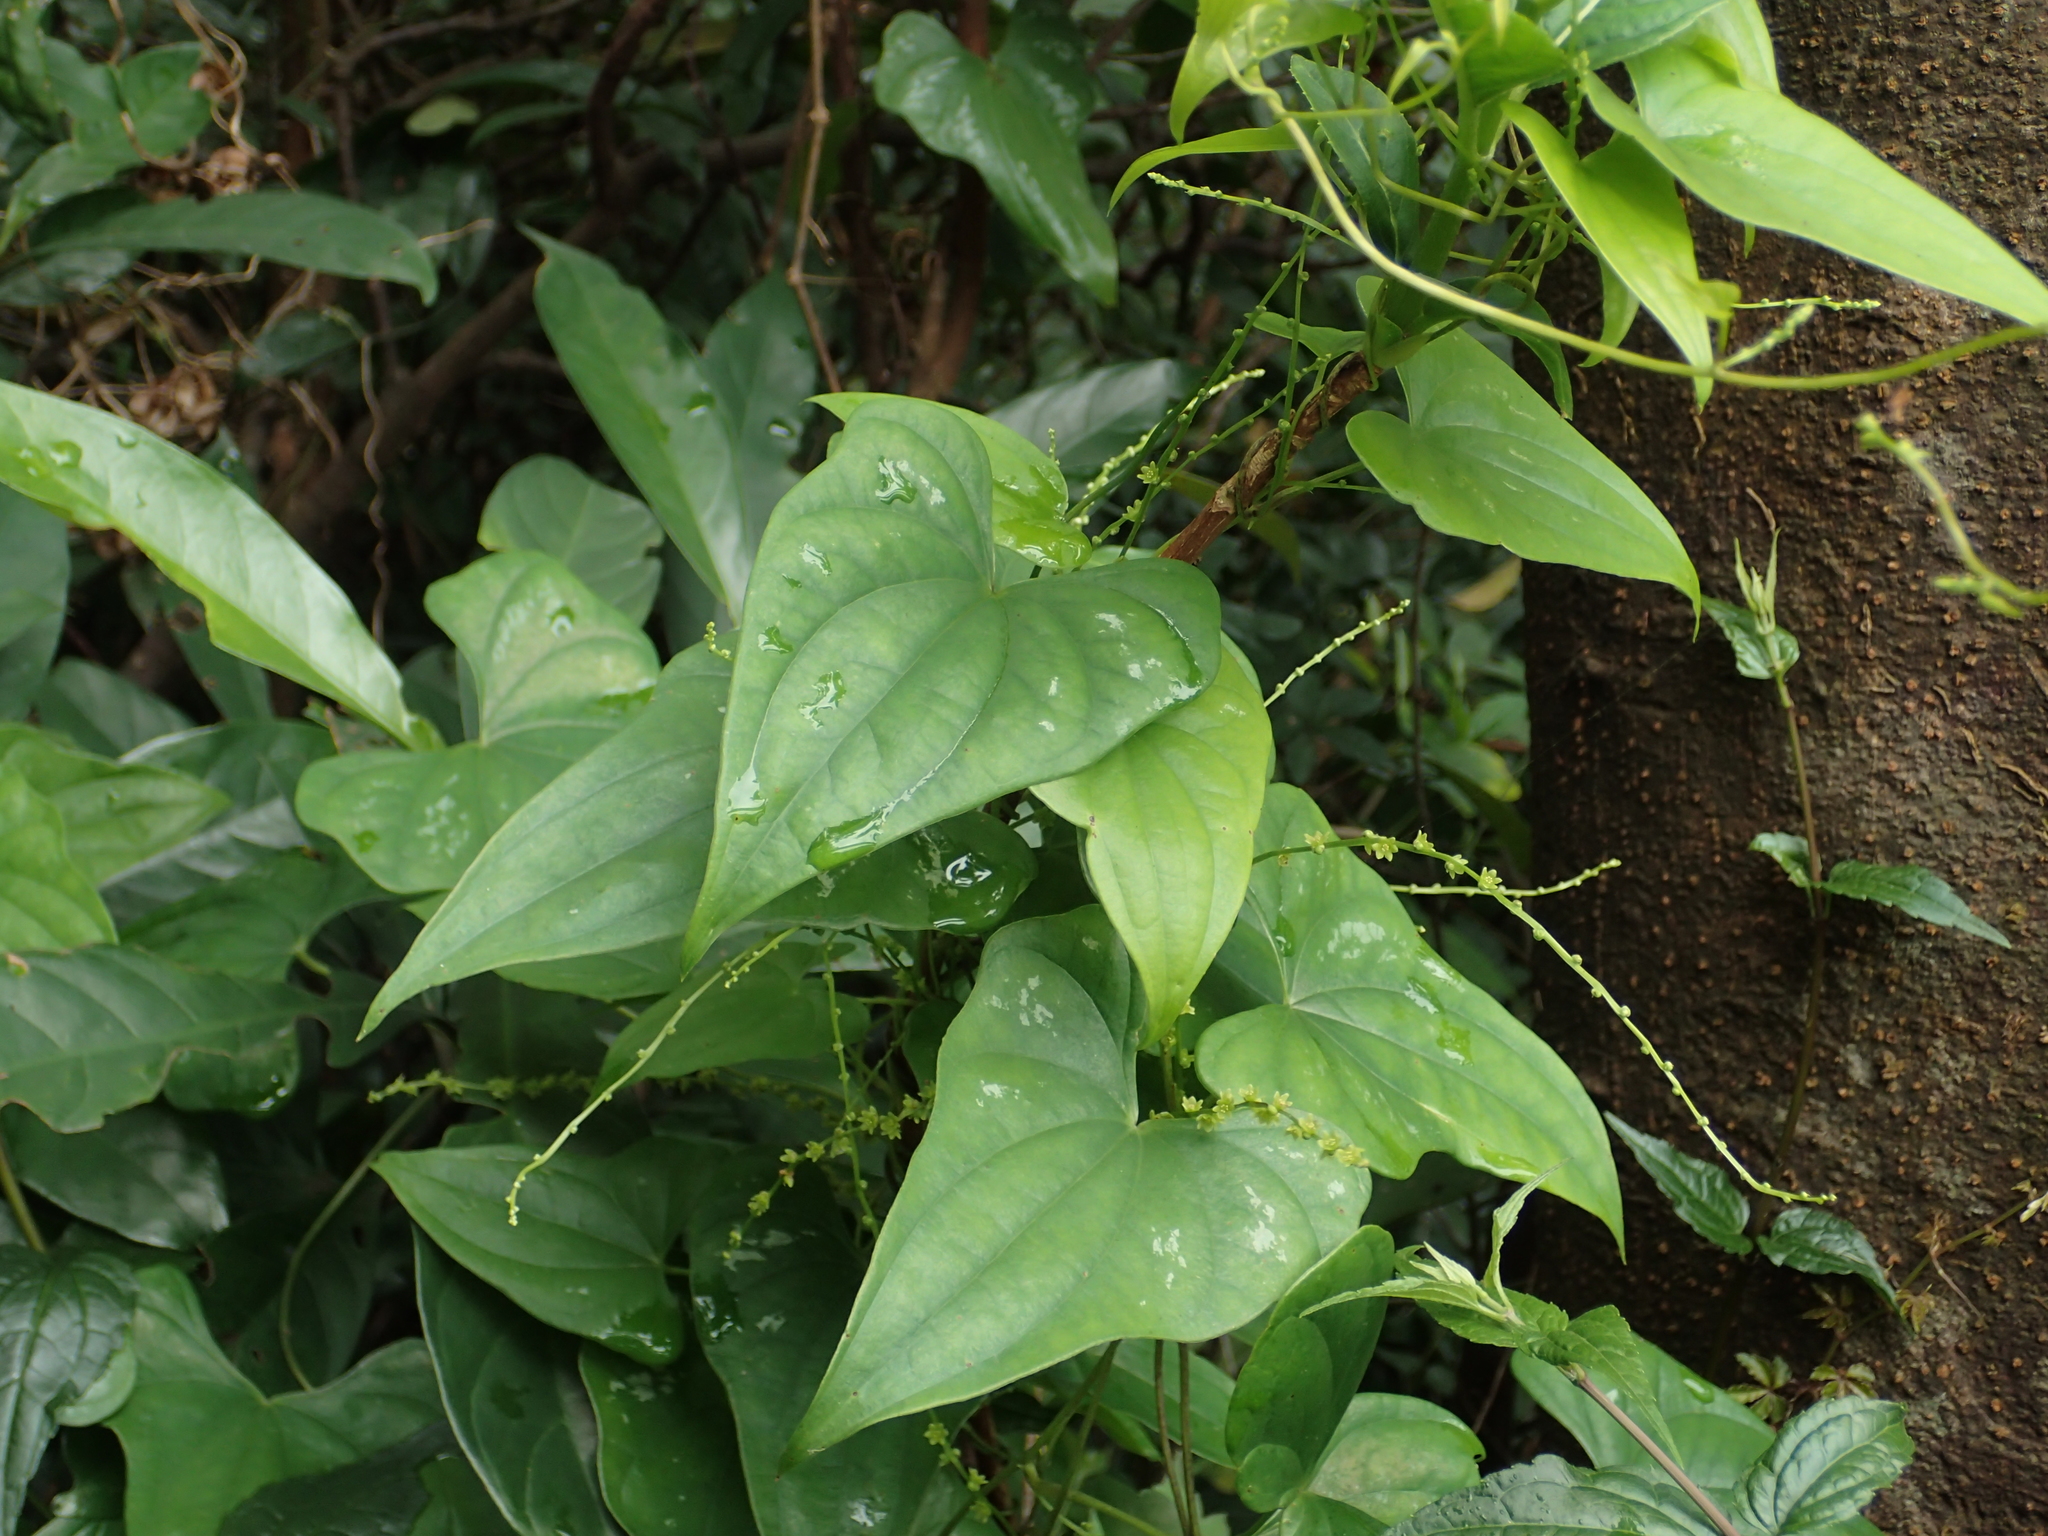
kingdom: Plantae
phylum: Tracheophyta
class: Liliopsida
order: Dioscoreales
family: Dioscoreaceae
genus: Dioscorea
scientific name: Dioscorea collettii
